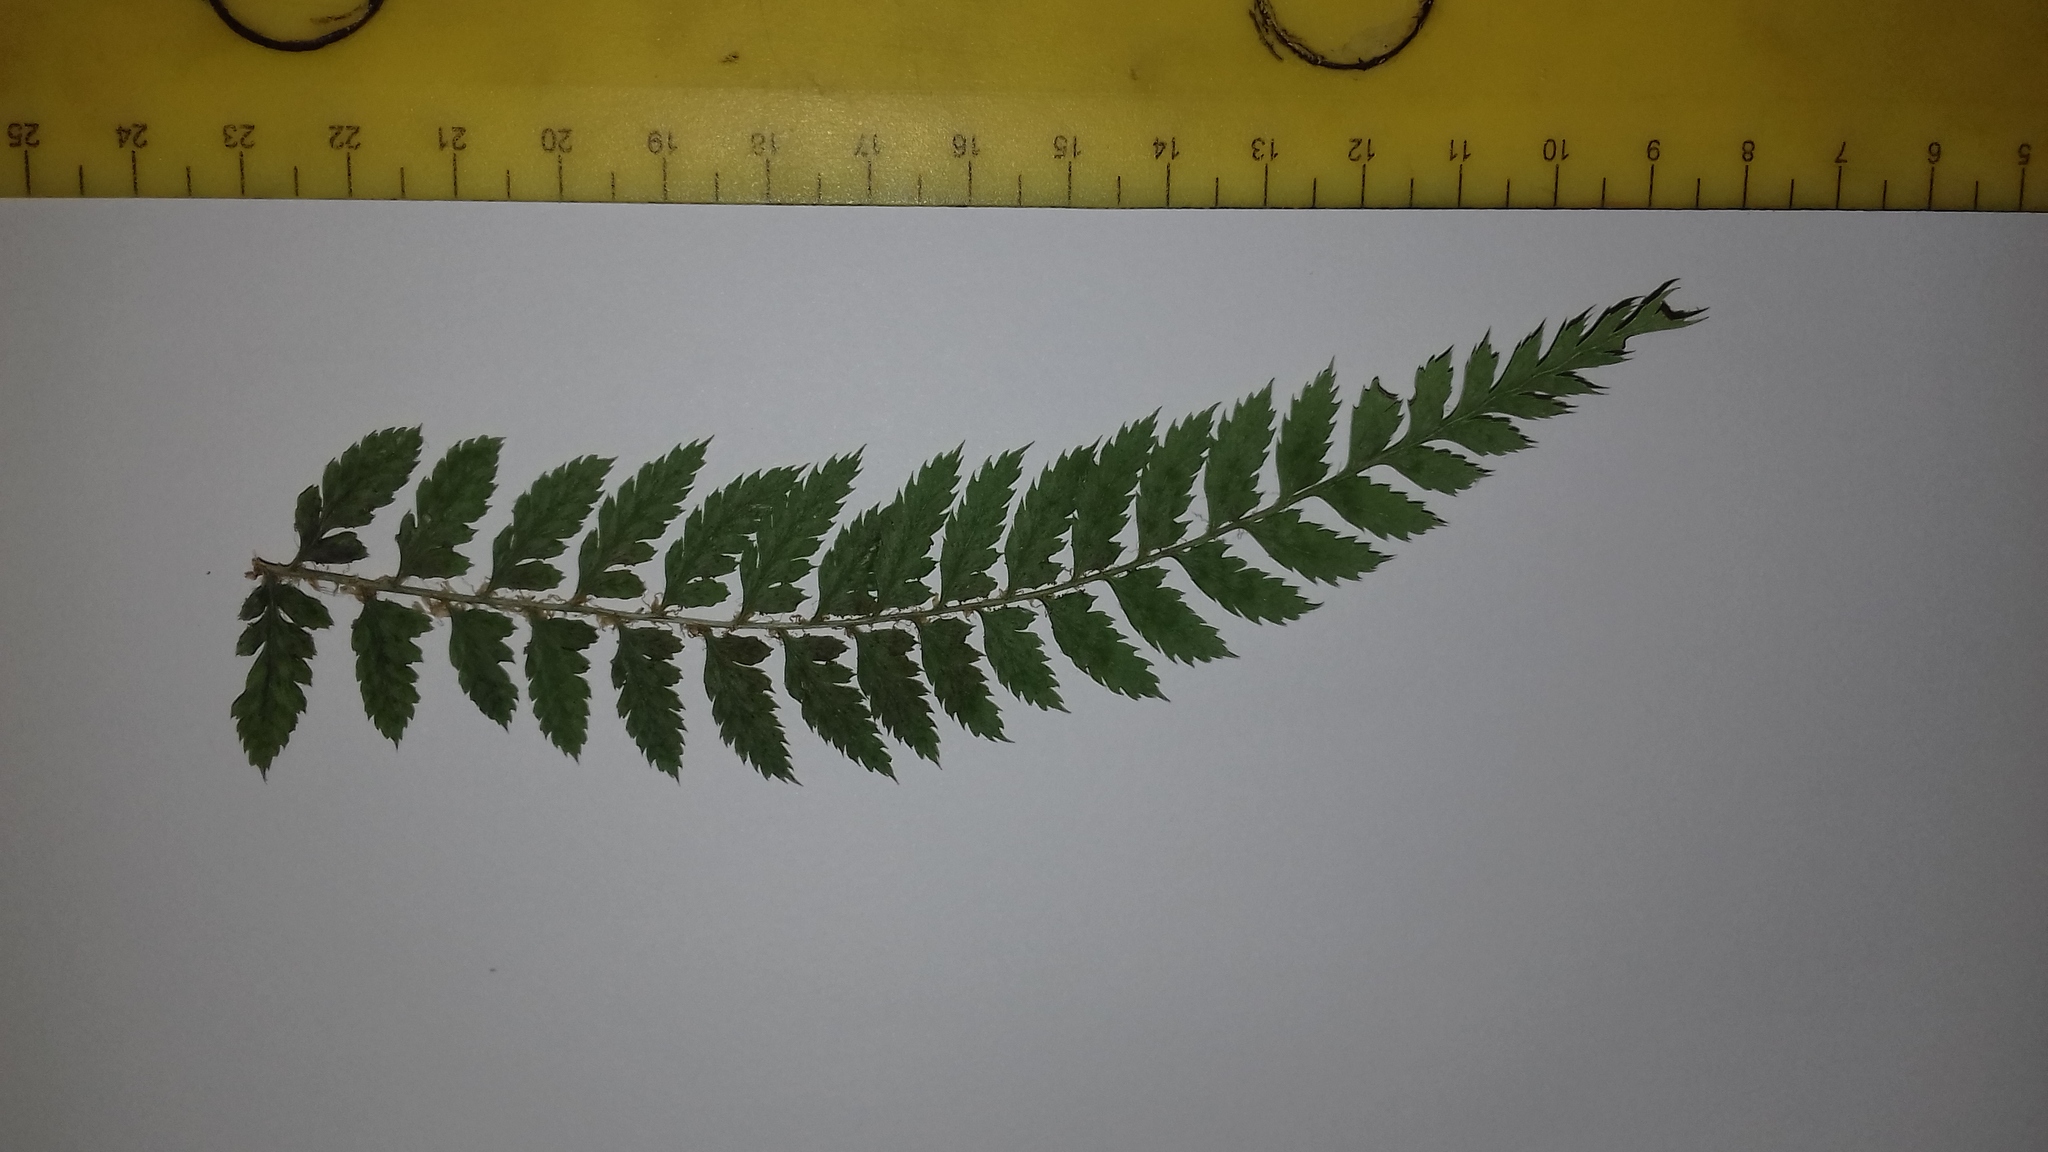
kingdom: Plantae
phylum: Tracheophyta
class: Polypodiopsida
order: Polypodiales
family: Dryopteridaceae
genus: Polystichum
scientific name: Polystichum pungens
